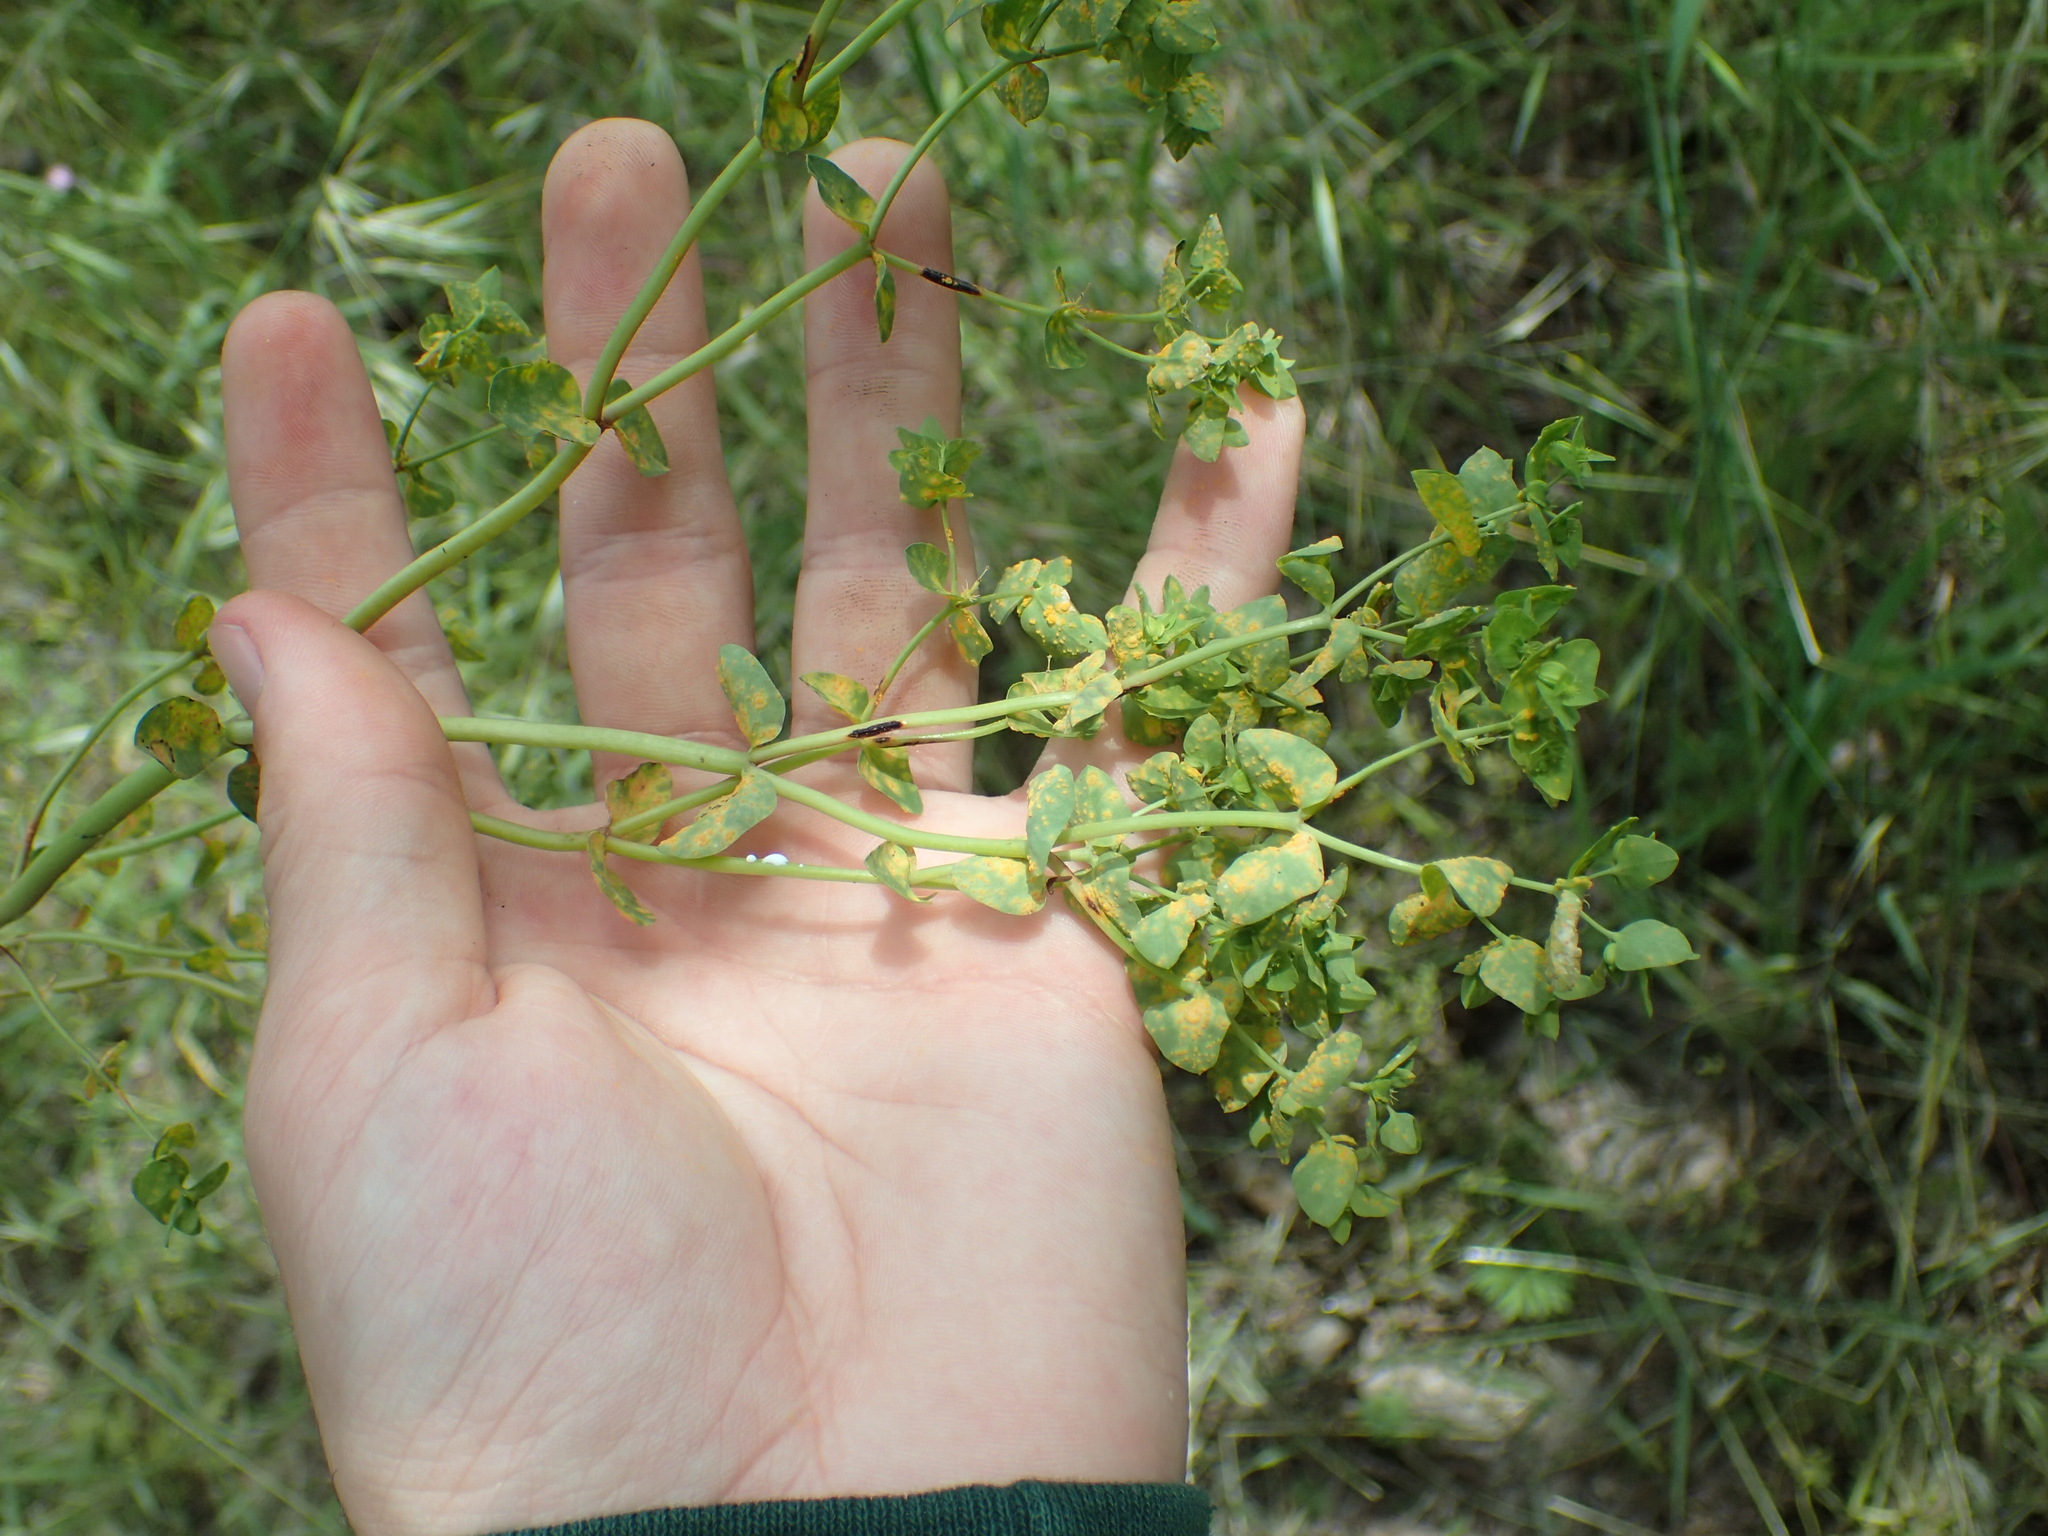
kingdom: Fungi
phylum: Basidiomycota
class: Pucciniomycetes
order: Pucciniales
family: Melampsoraceae
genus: Melampsora
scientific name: Melampsora euphorbiae
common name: Spurge rust
